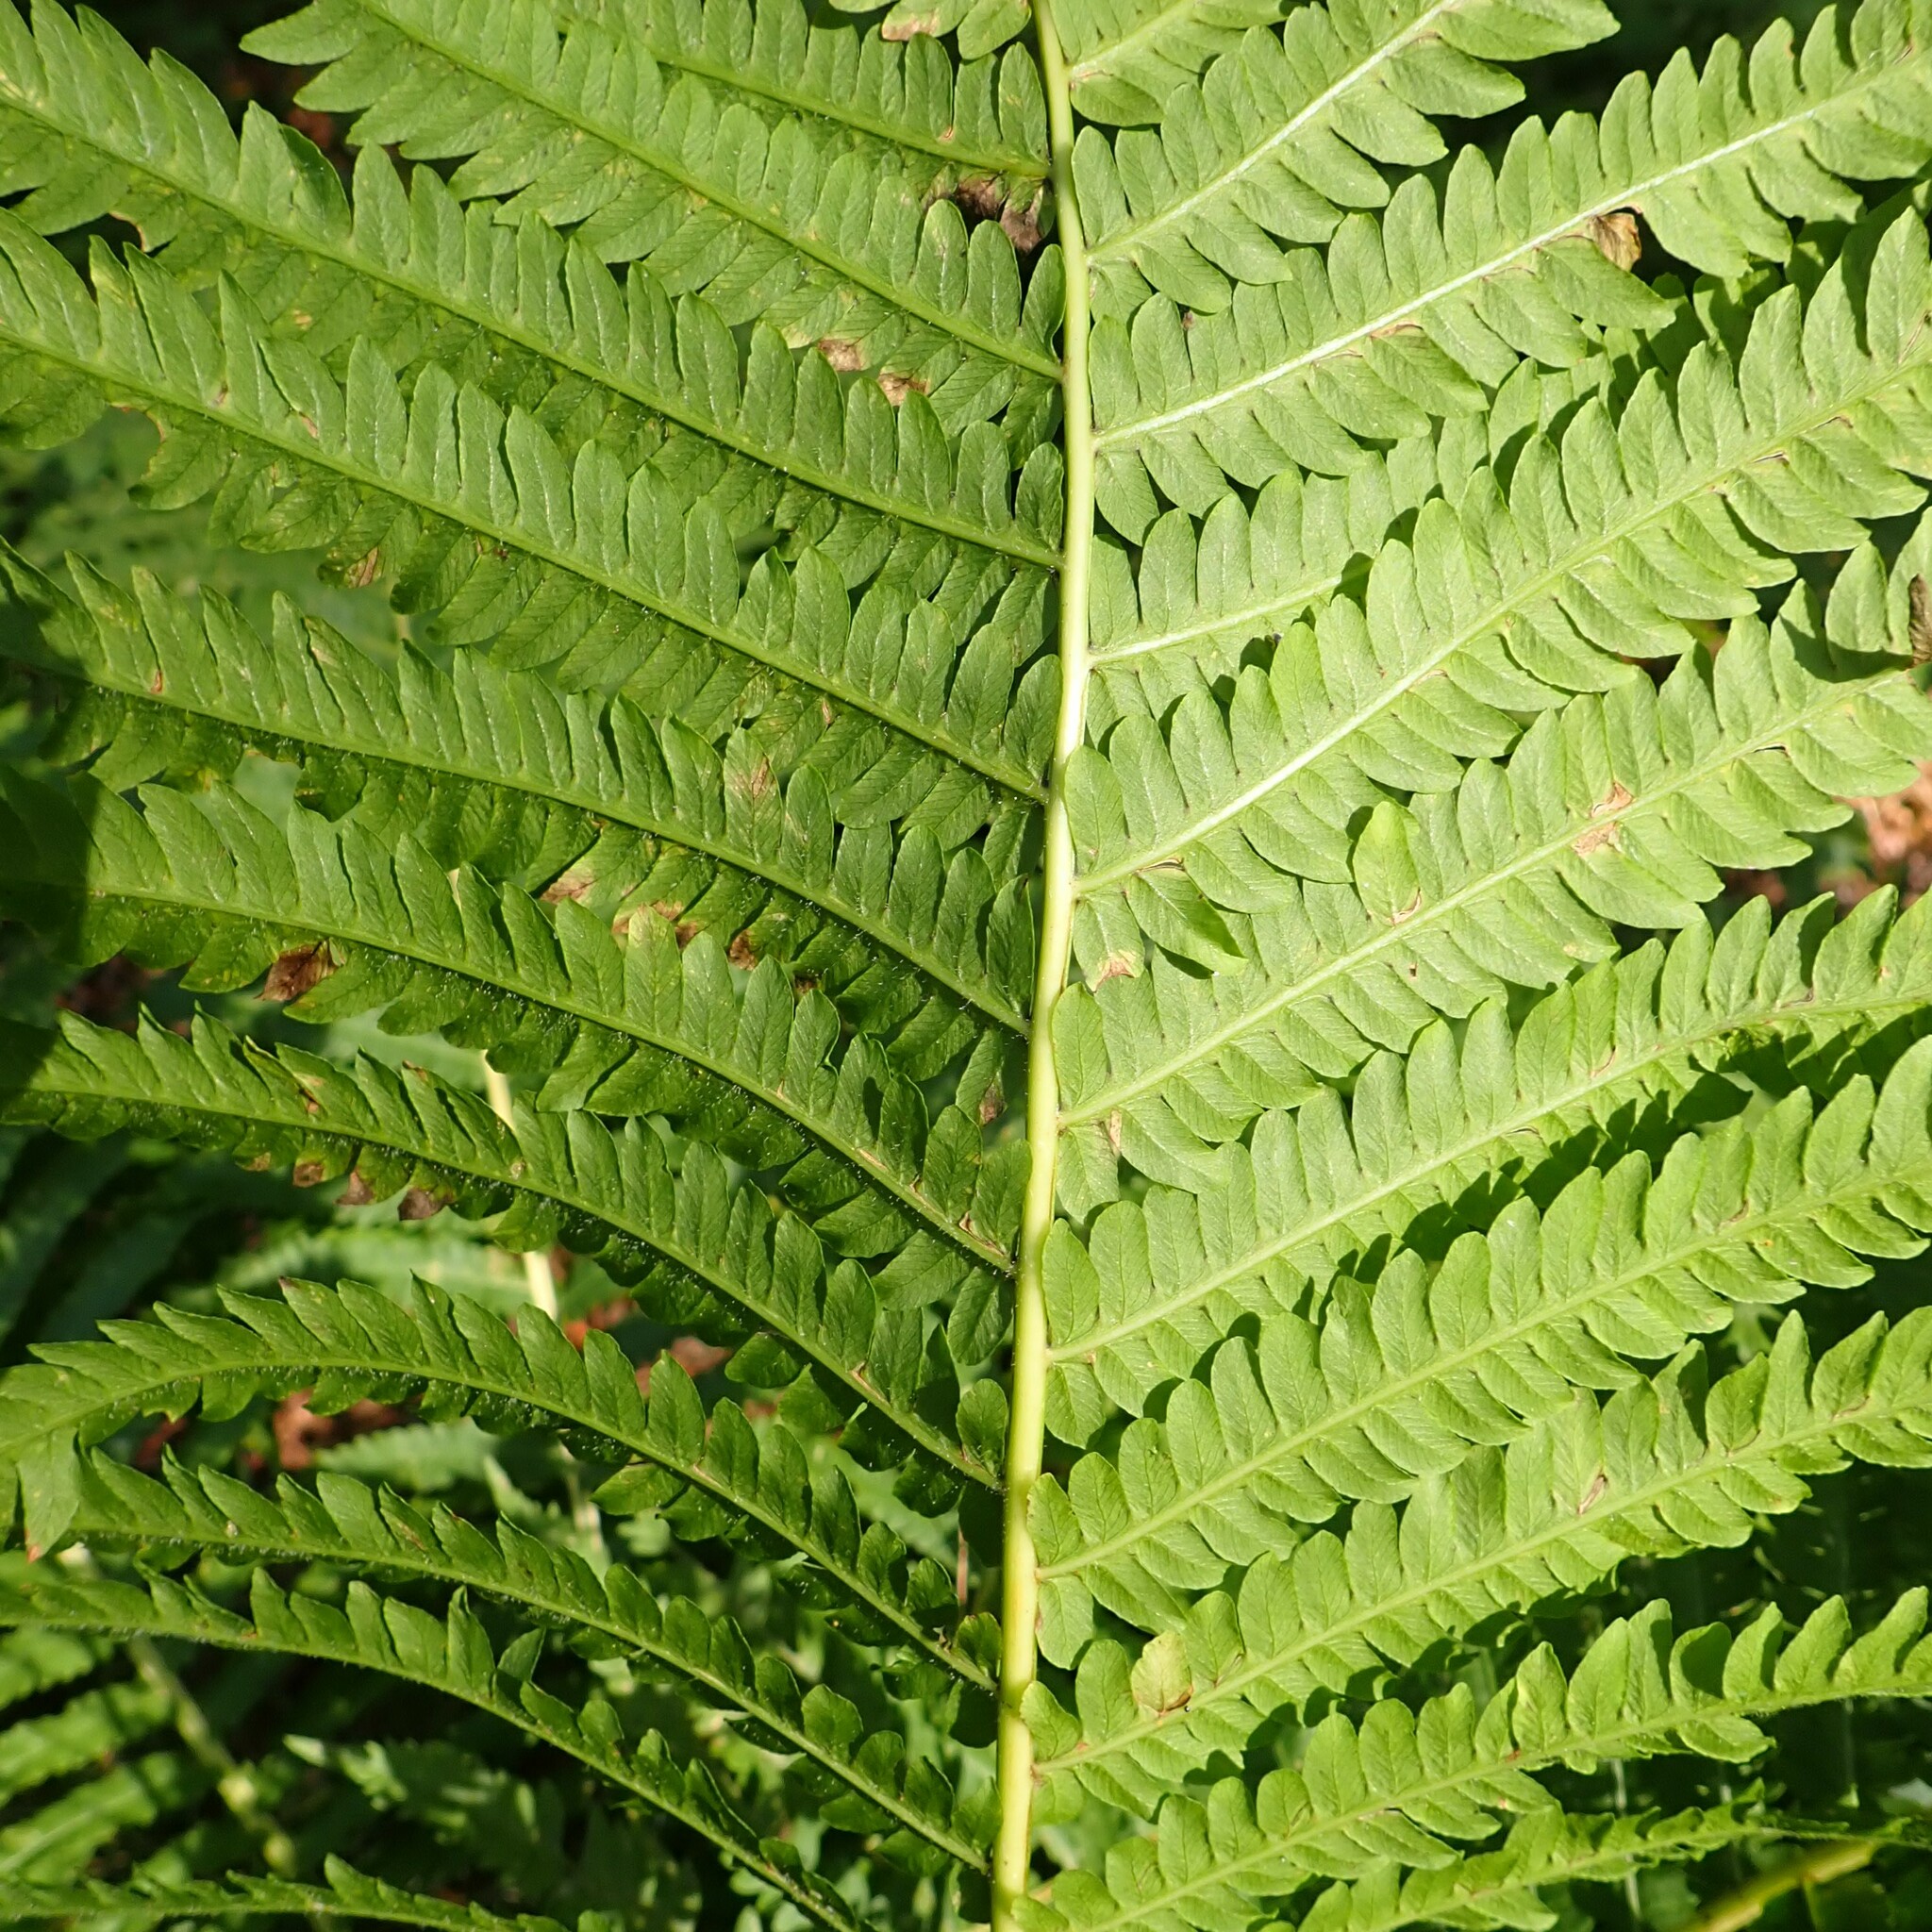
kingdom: Plantae
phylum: Tracheophyta
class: Polypodiopsida
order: Polypodiales
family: Onocleaceae
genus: Matteuccia
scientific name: Matteuccia struthiopteris
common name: Ostrich fern
